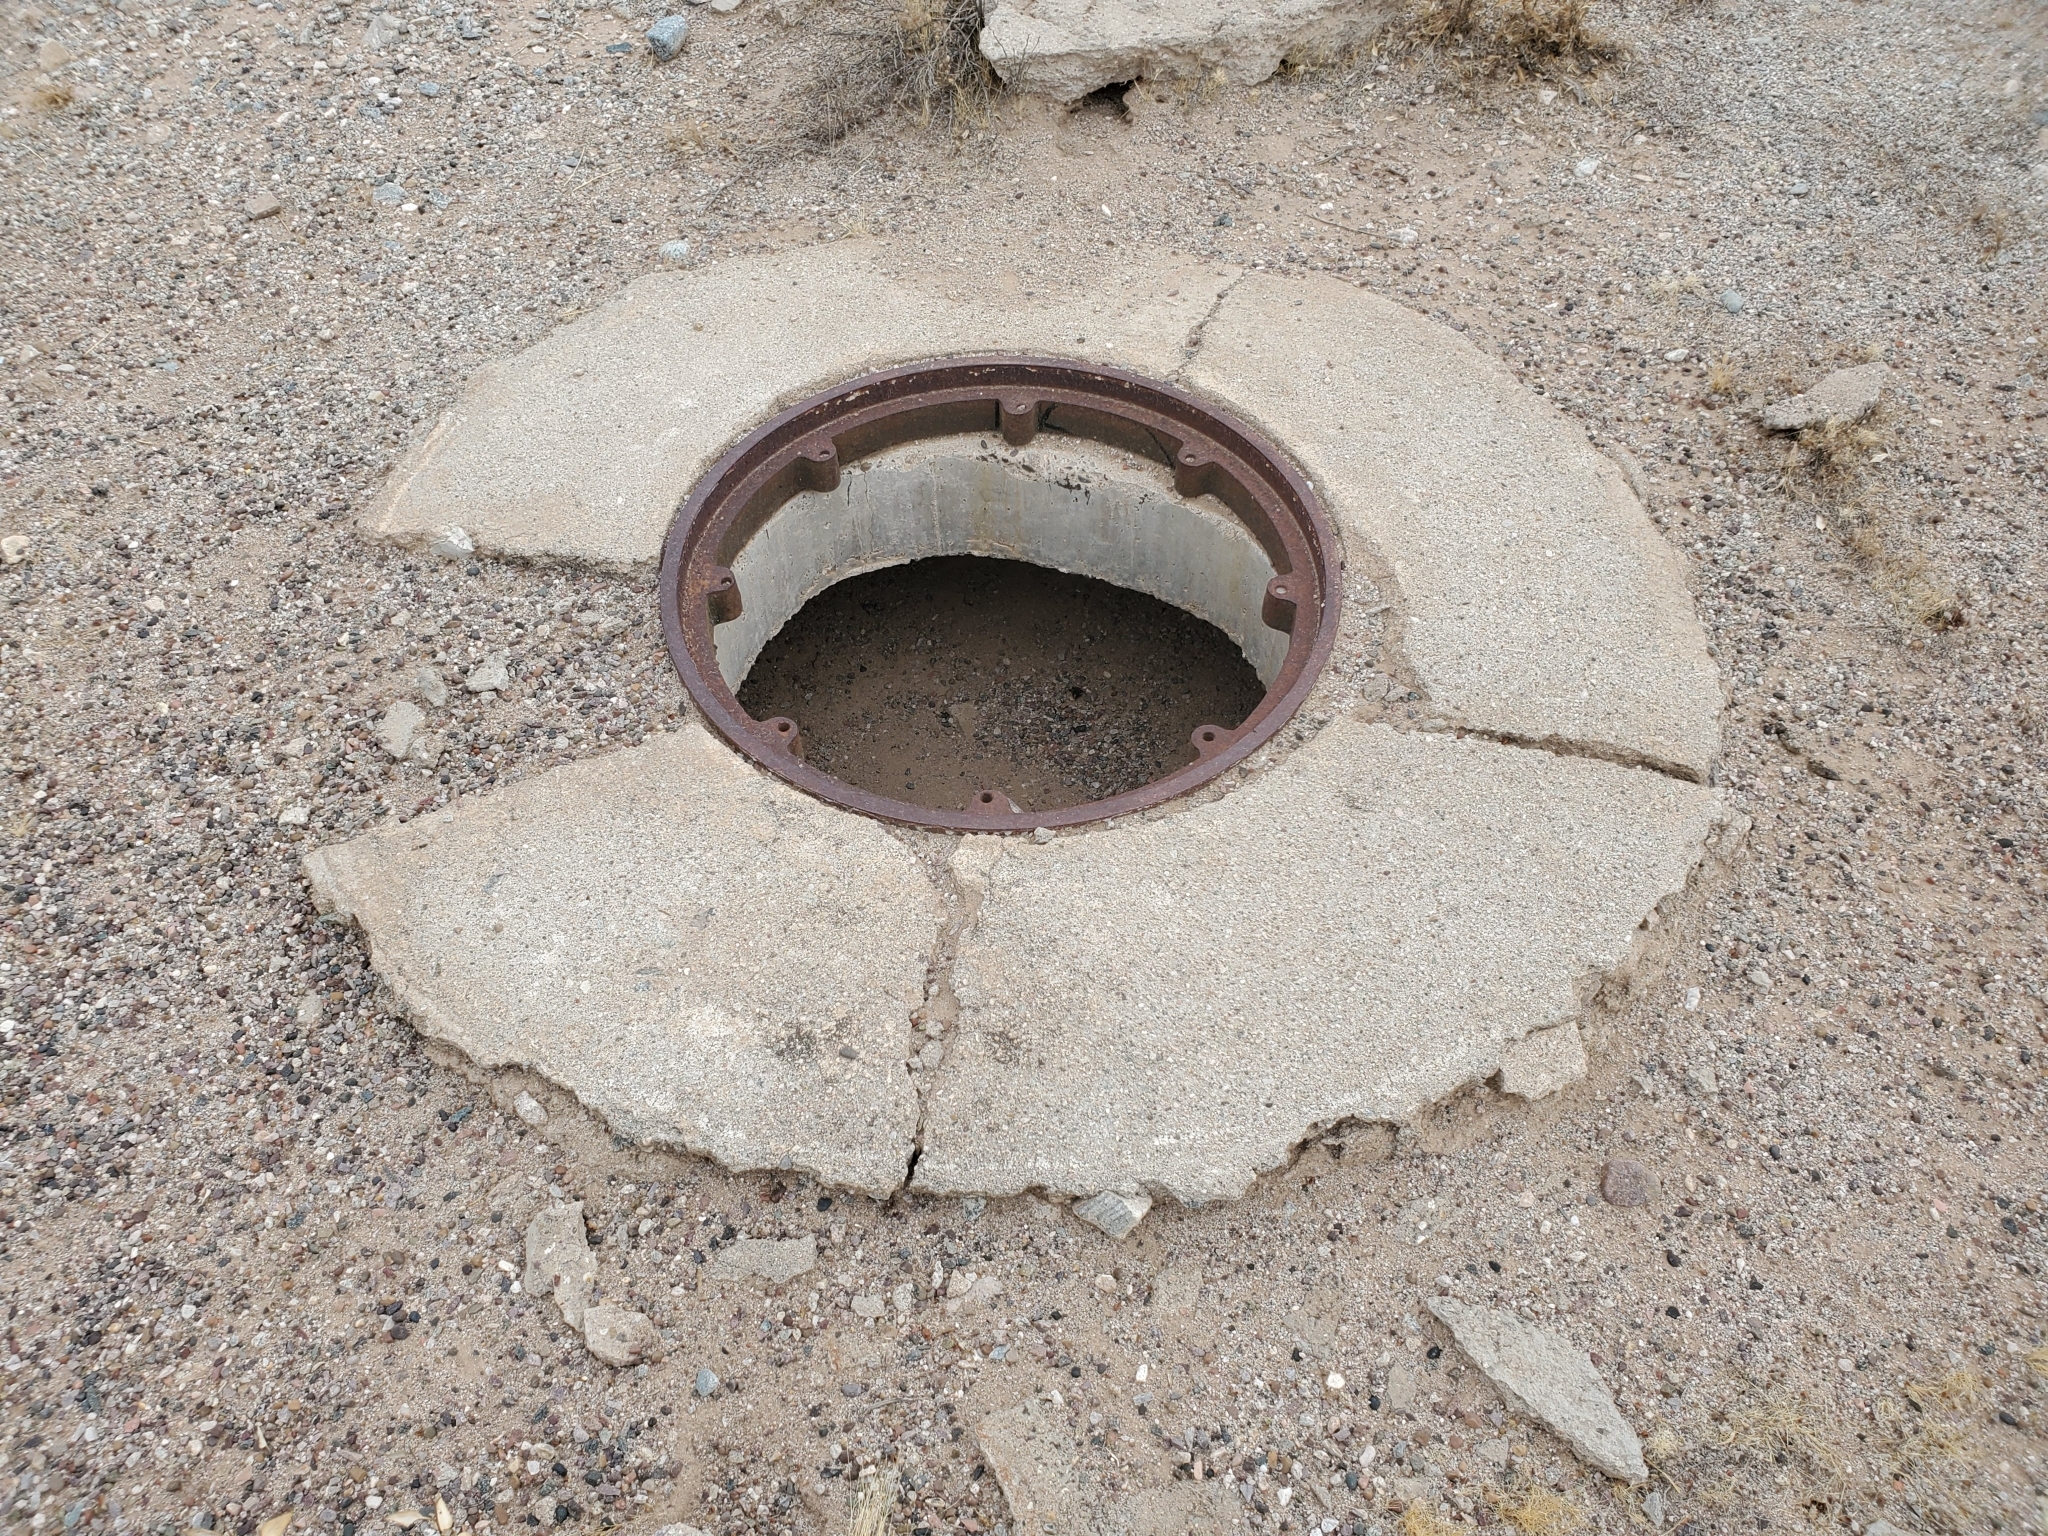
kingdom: Animalia
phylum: Arthropoda
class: Insecta
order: Coleoptera
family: Tenebrionidae
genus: Eleodes
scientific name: Eleodes armata
